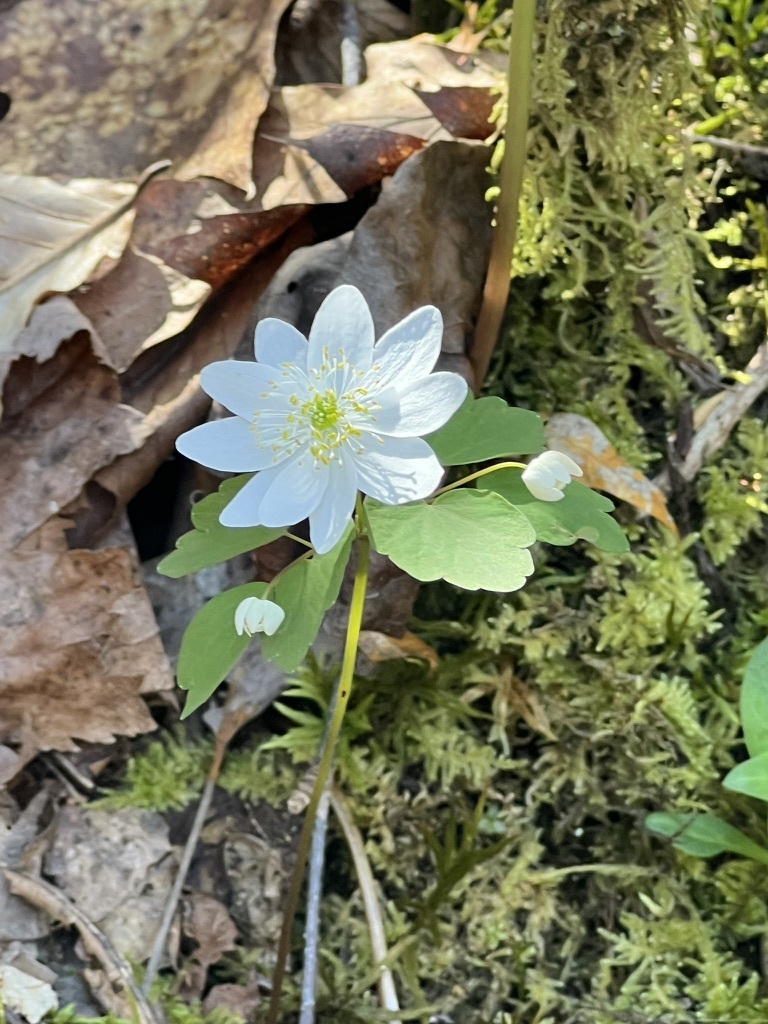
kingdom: Plantae
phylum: Tracheophyta
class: Magnoliopsida
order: Ranunculales
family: Ranunculaceae
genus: Thalictrum
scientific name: Thalictrum thalictroides
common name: Rue-anemone
